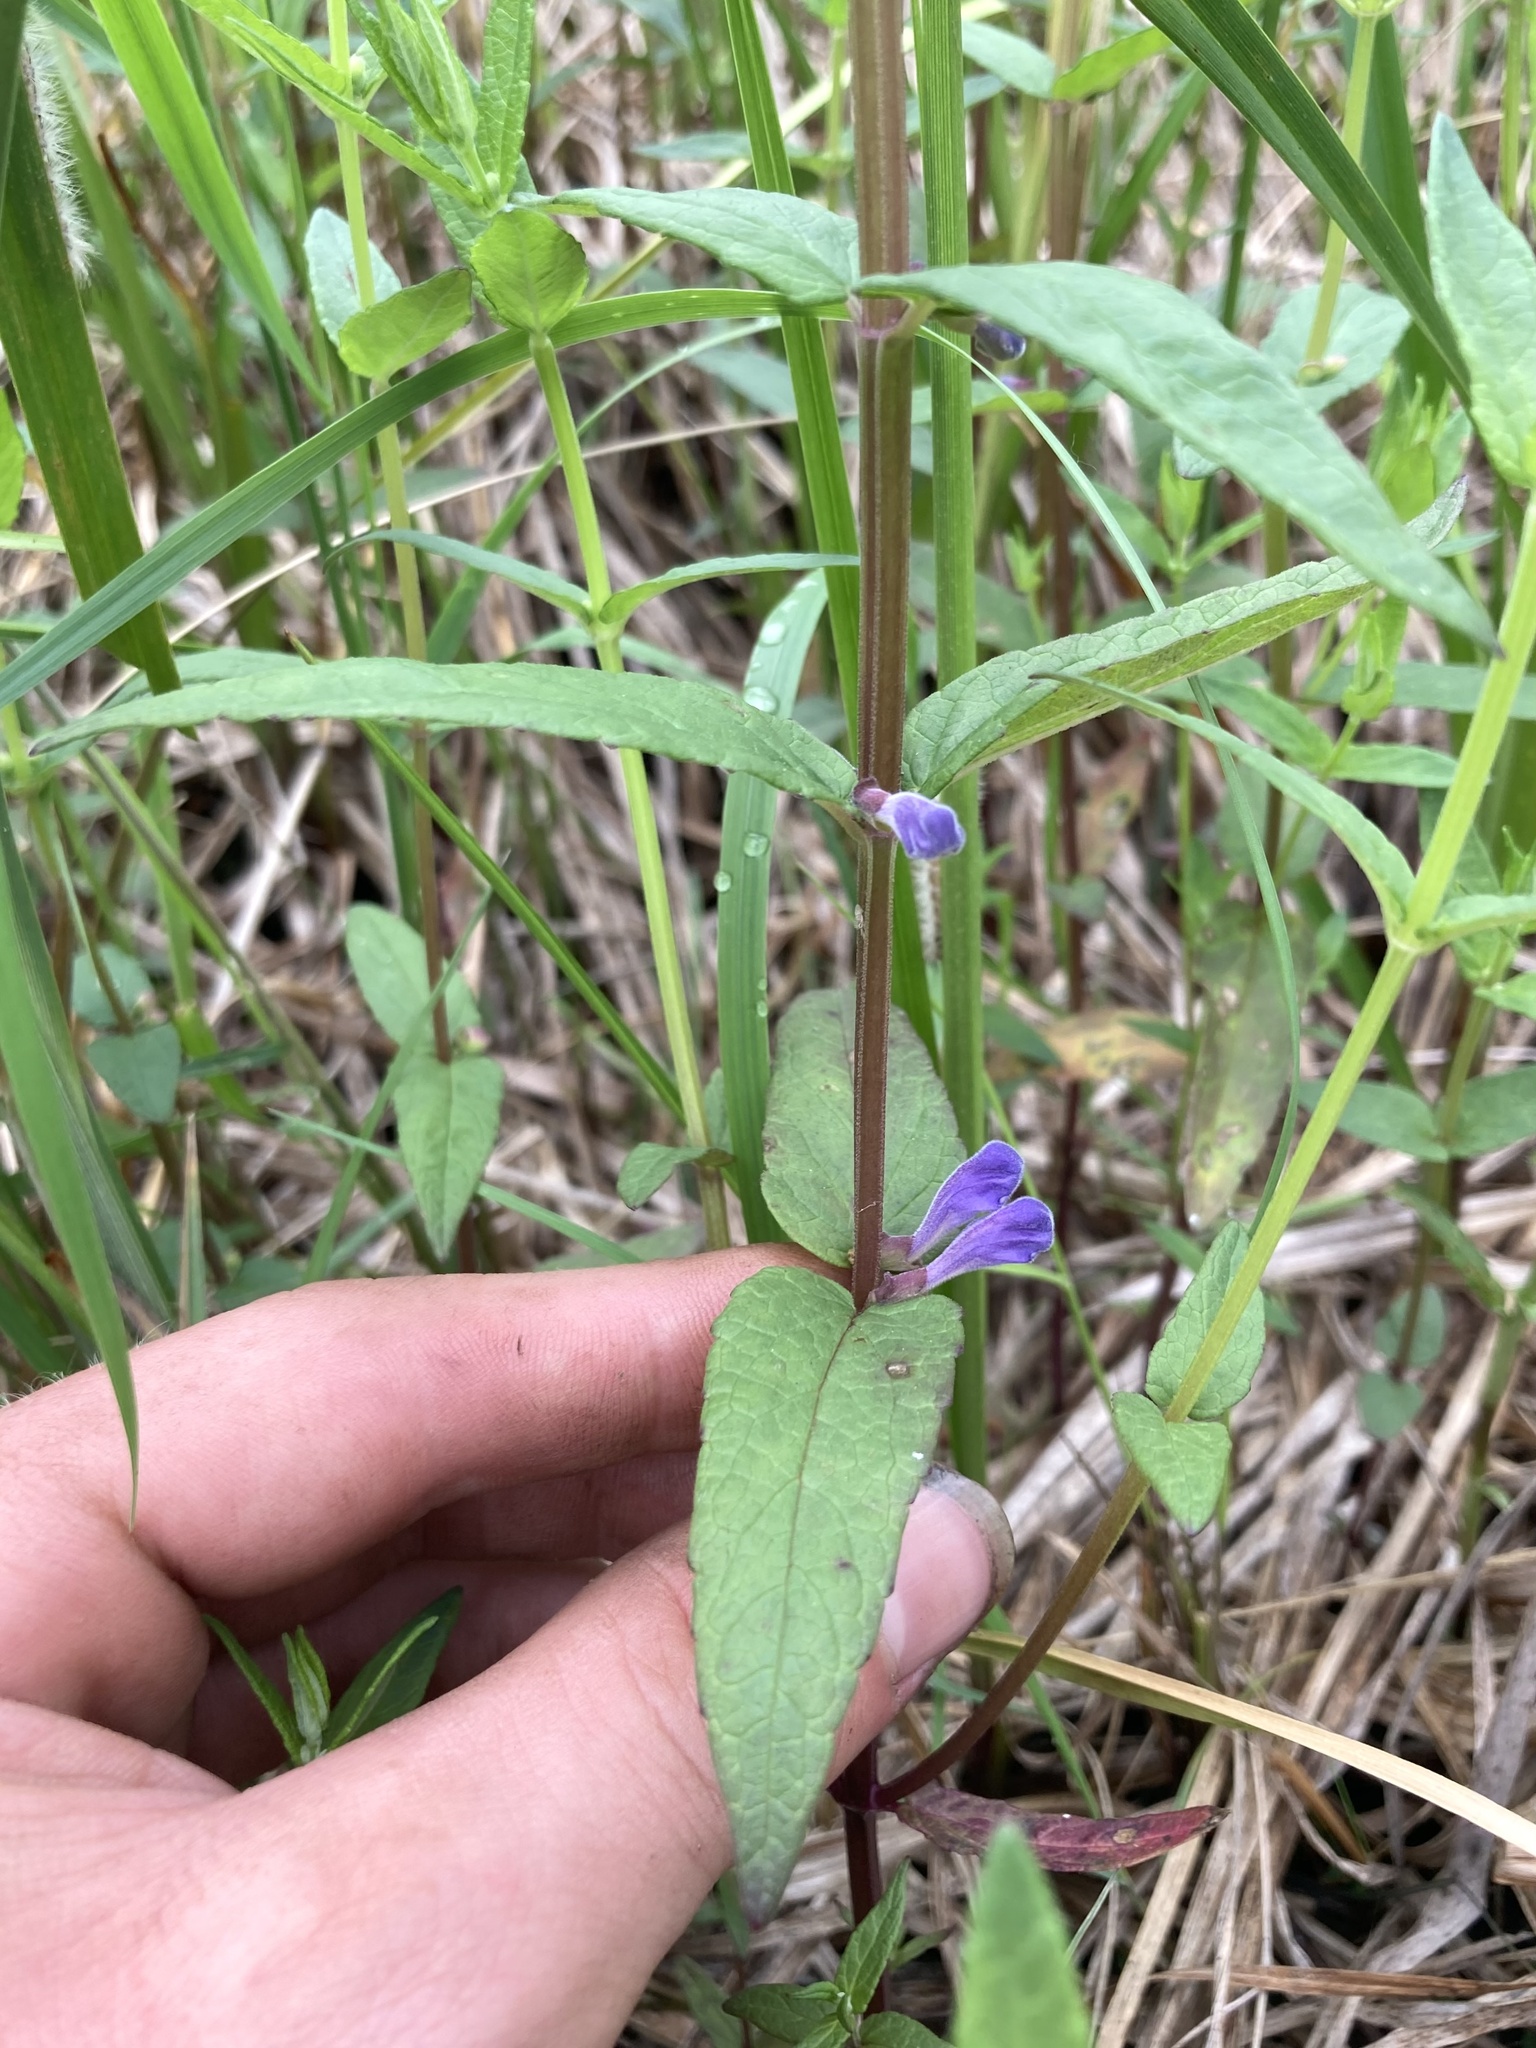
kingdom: Plantae
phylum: Tracheophyta
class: Magnoliopsida
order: Lamiales
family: Lamiaceae
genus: Scutellaria
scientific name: Scutellaria galericulata
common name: Skullcap
